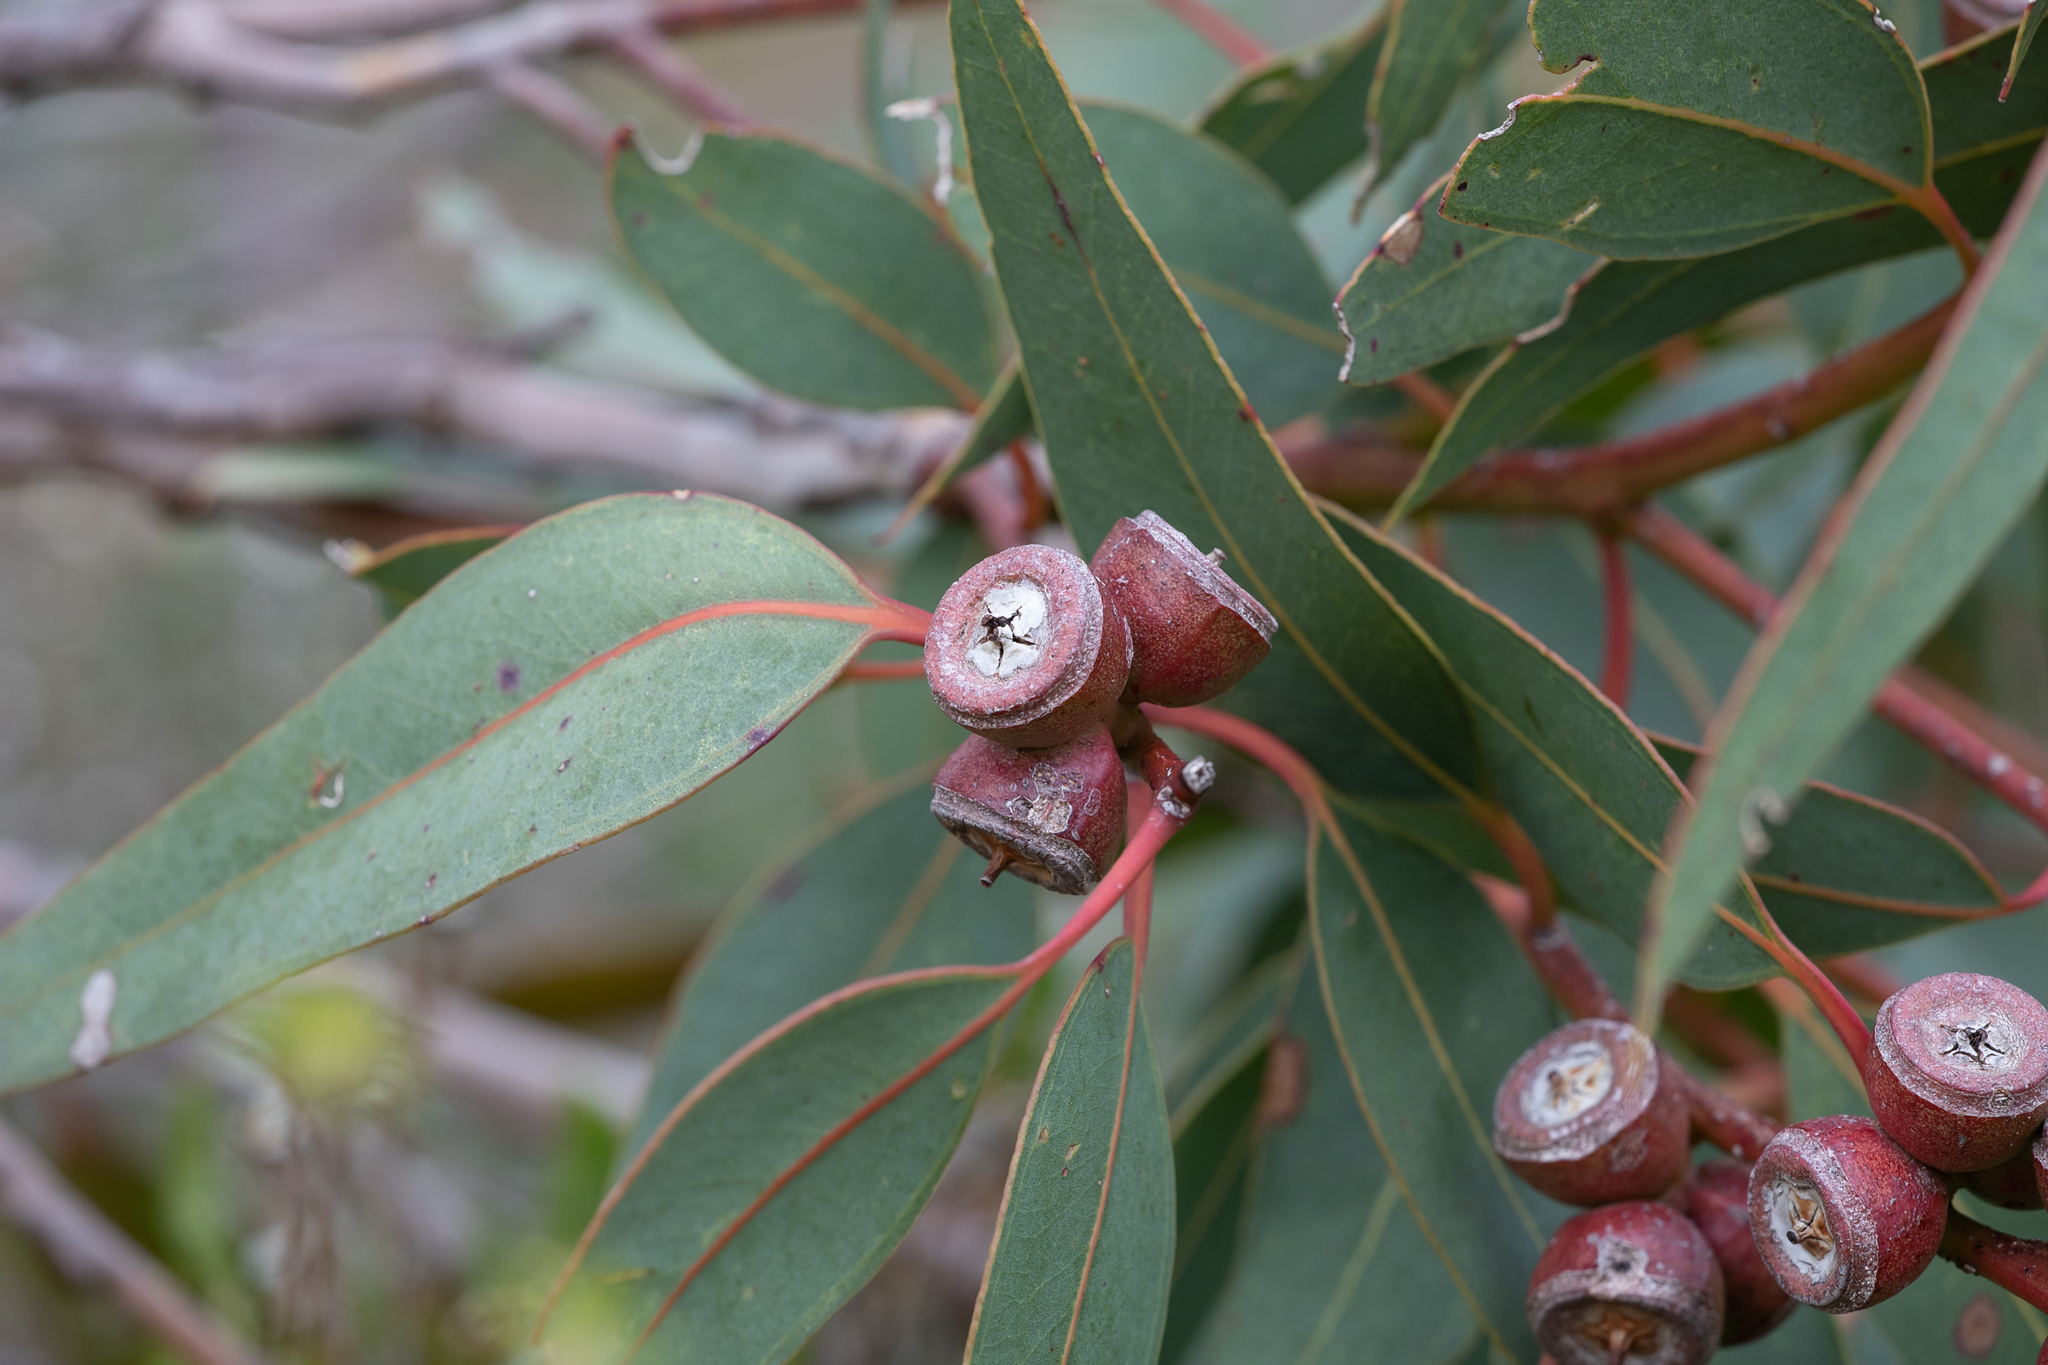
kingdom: Plantae
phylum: Tracheophyta
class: Magnoliopsida
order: Myrtales
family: Myrtaceae
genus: Eucalyptus
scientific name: Eucalyptus cosmophylla
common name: Bog-gum
